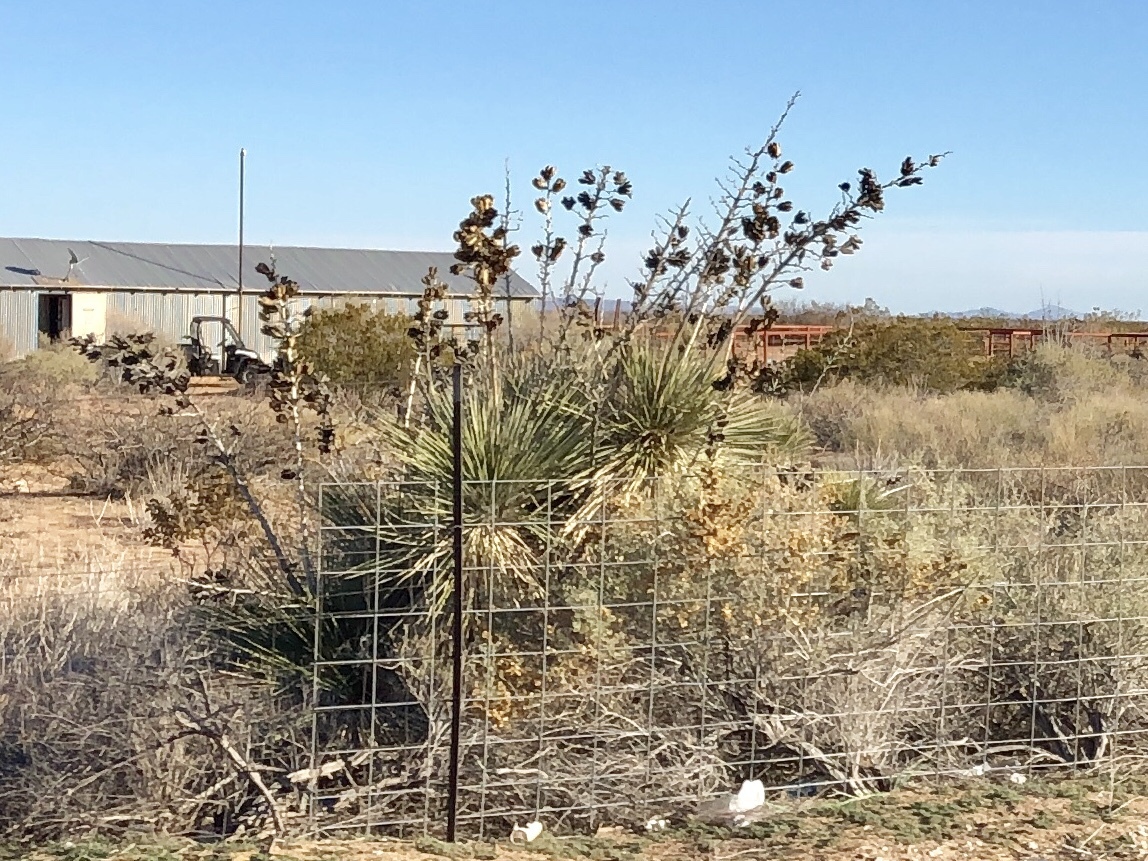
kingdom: Plantae
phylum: Tracheophyta
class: Liliopsida
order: Asparagales
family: Asparagaceae
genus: Yucca
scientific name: Yucca elata
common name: Palmella
